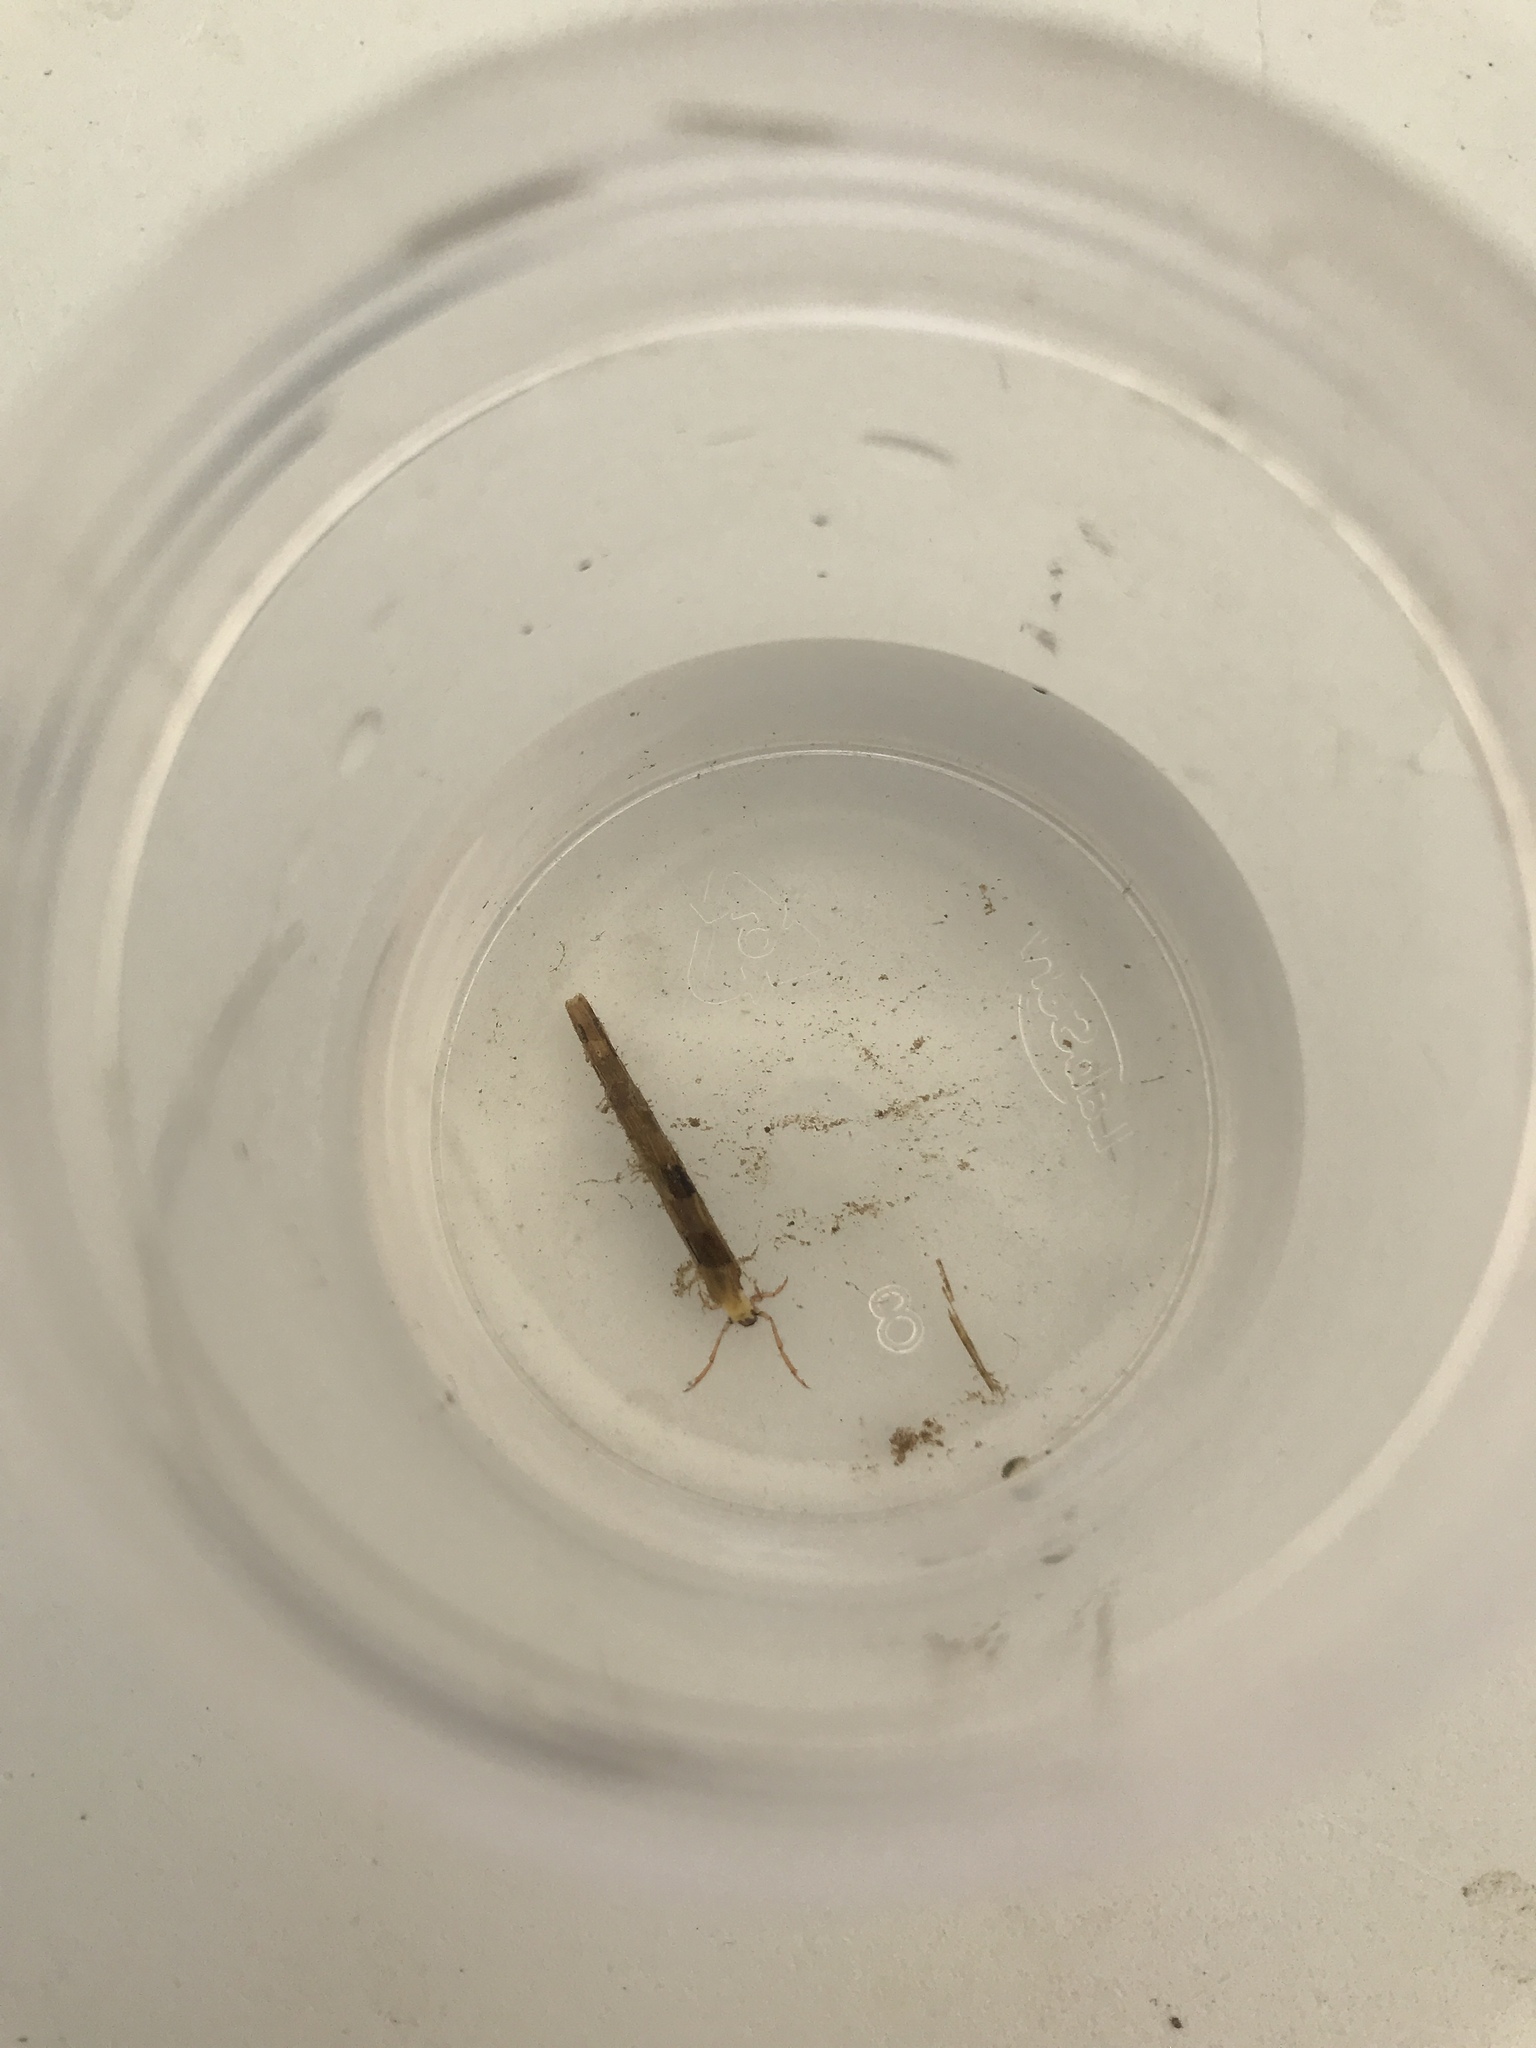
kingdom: Animalia
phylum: Arthropoda
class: Insecta
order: Trichoptera
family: Leptoceridae
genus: Hudsonema
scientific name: Hudsonema alienum
